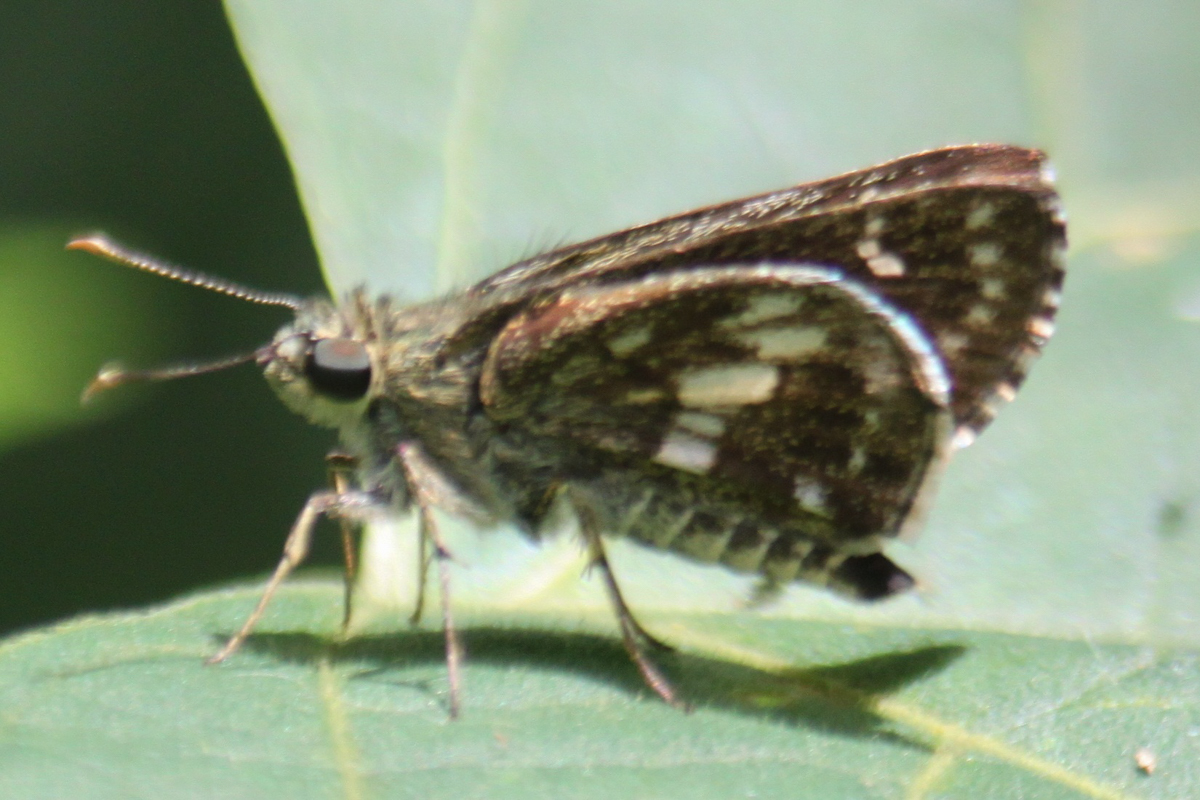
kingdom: Animalia
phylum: Arthropoda
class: Insecta
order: Lepidoptera
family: Hesperiidae
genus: Halpe
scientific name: Halpe porus
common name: Moore's ace
